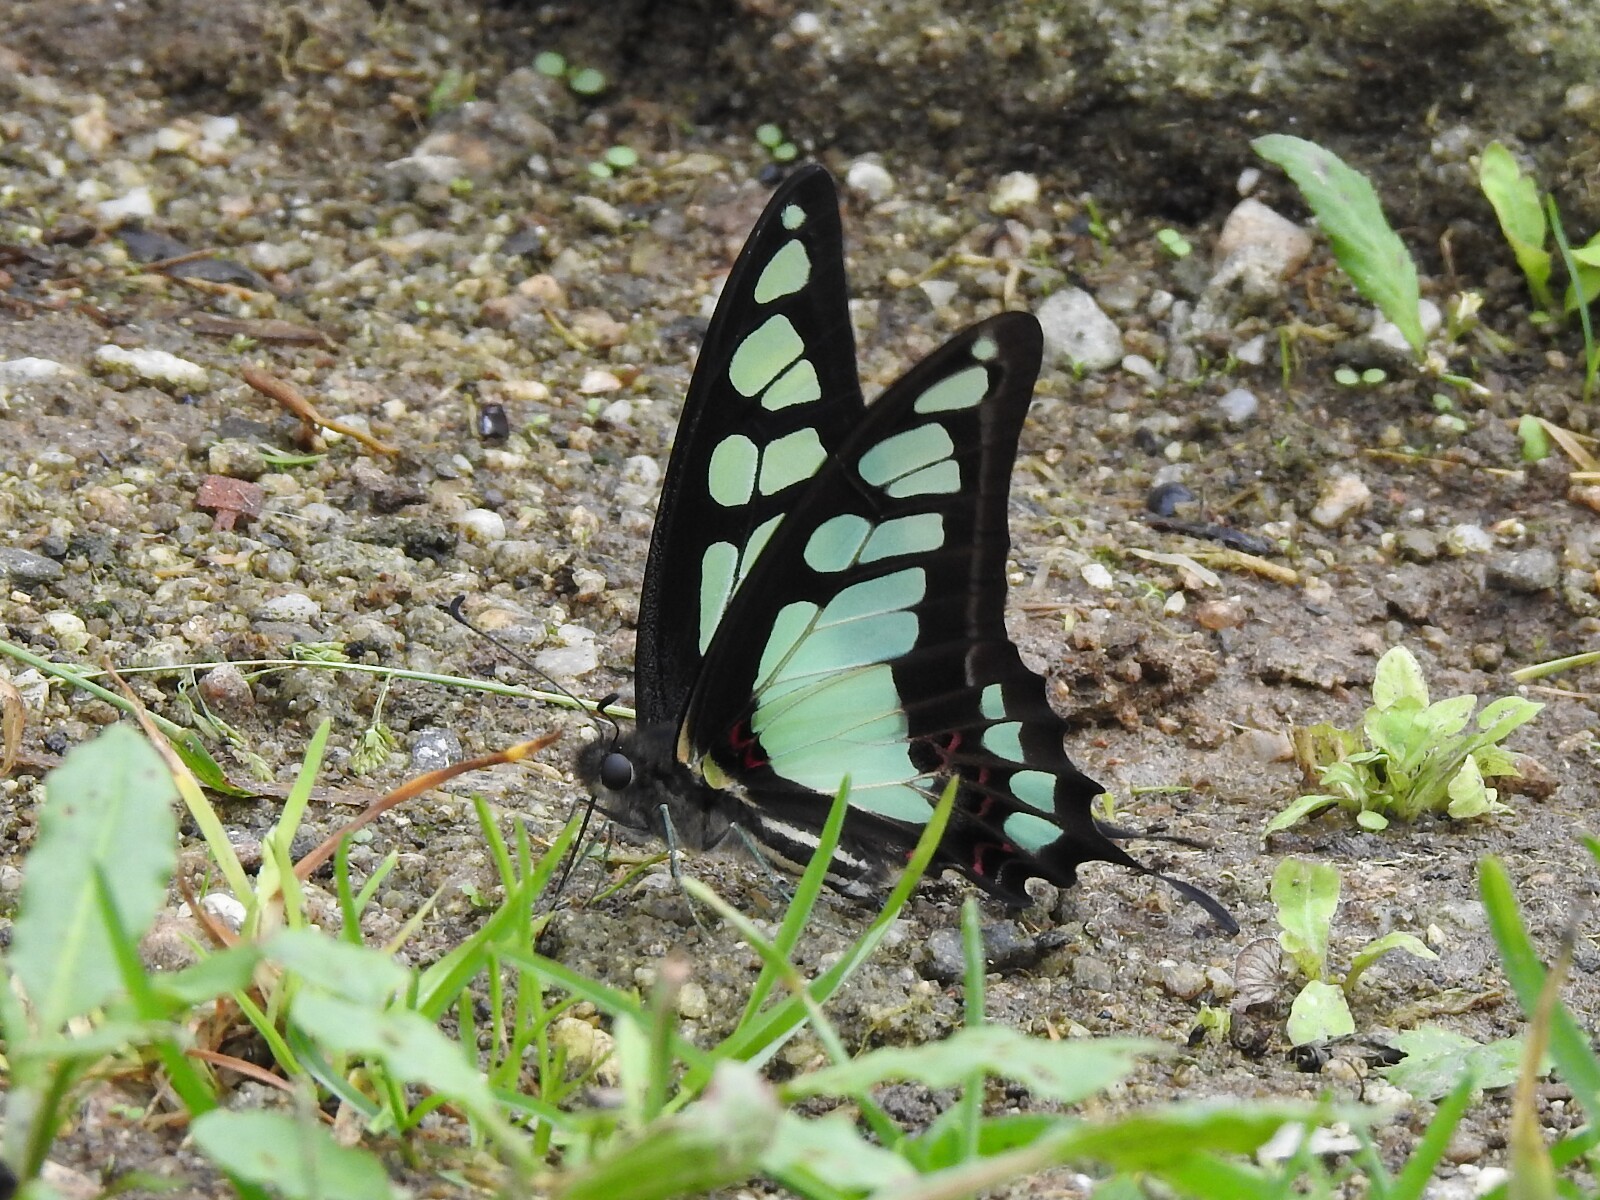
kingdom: Animalia
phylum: Arthropoda
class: Insecta
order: Lepidoptera
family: Papilionidae
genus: Graphium
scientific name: Graphium cloanthus
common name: Glassy bluebottle
